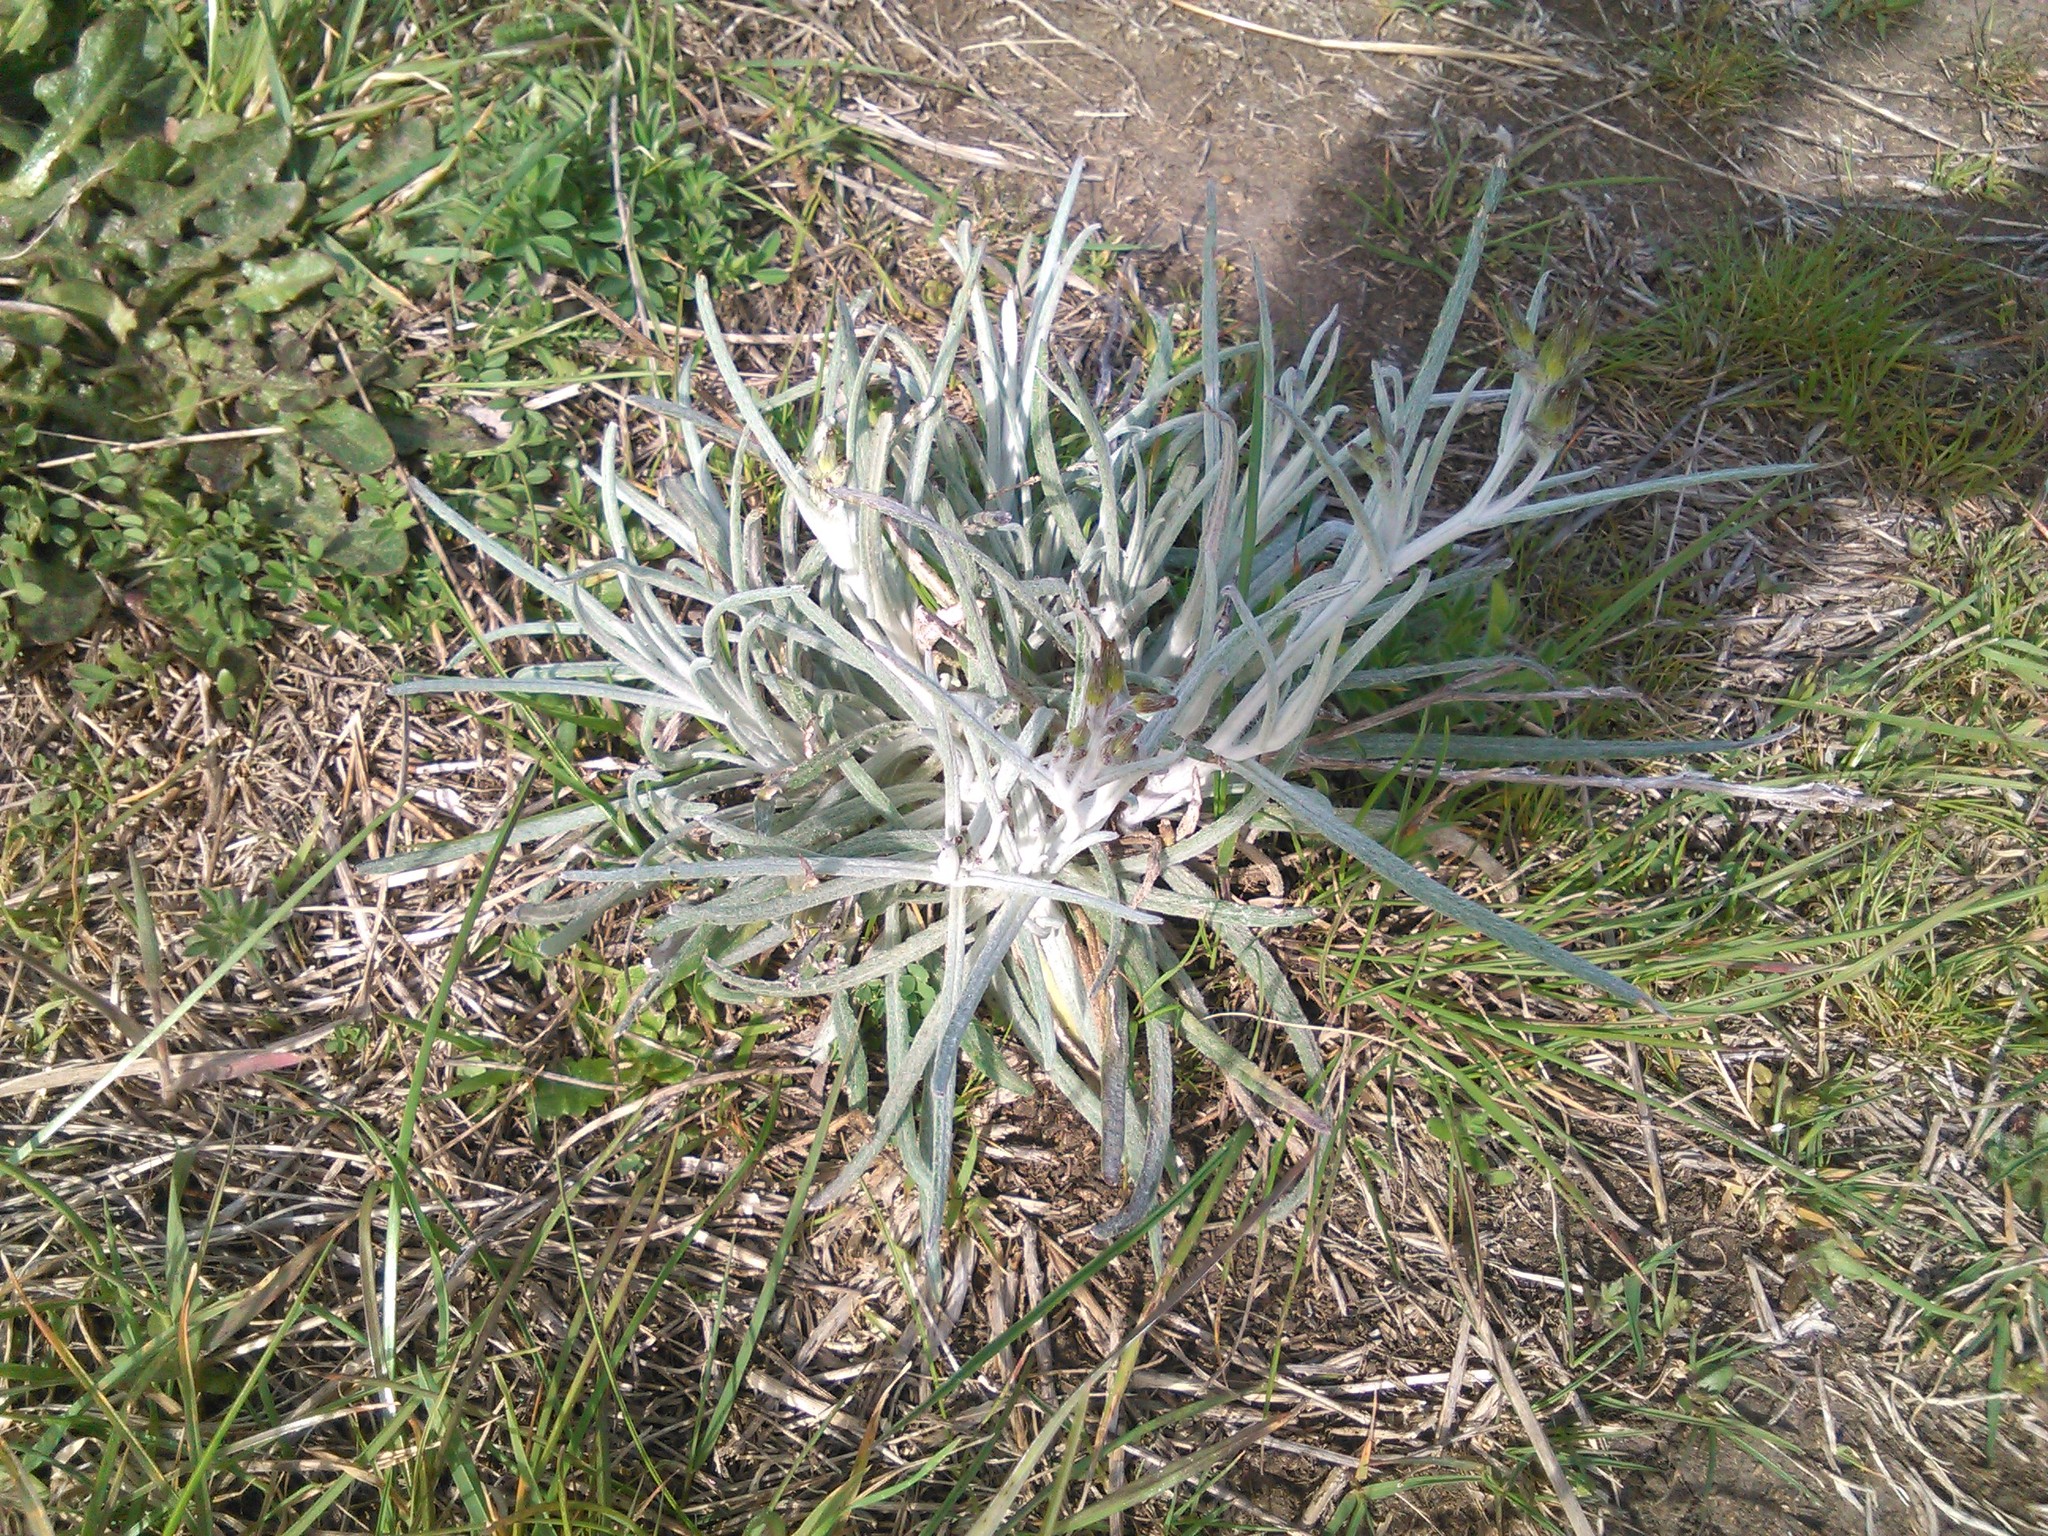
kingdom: Plantae
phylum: Tracheophyta
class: Magnoliopsida
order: Asterales
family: Asteraceae
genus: Senecio
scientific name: Senecio quadridentatus
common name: Cotton fireweed
